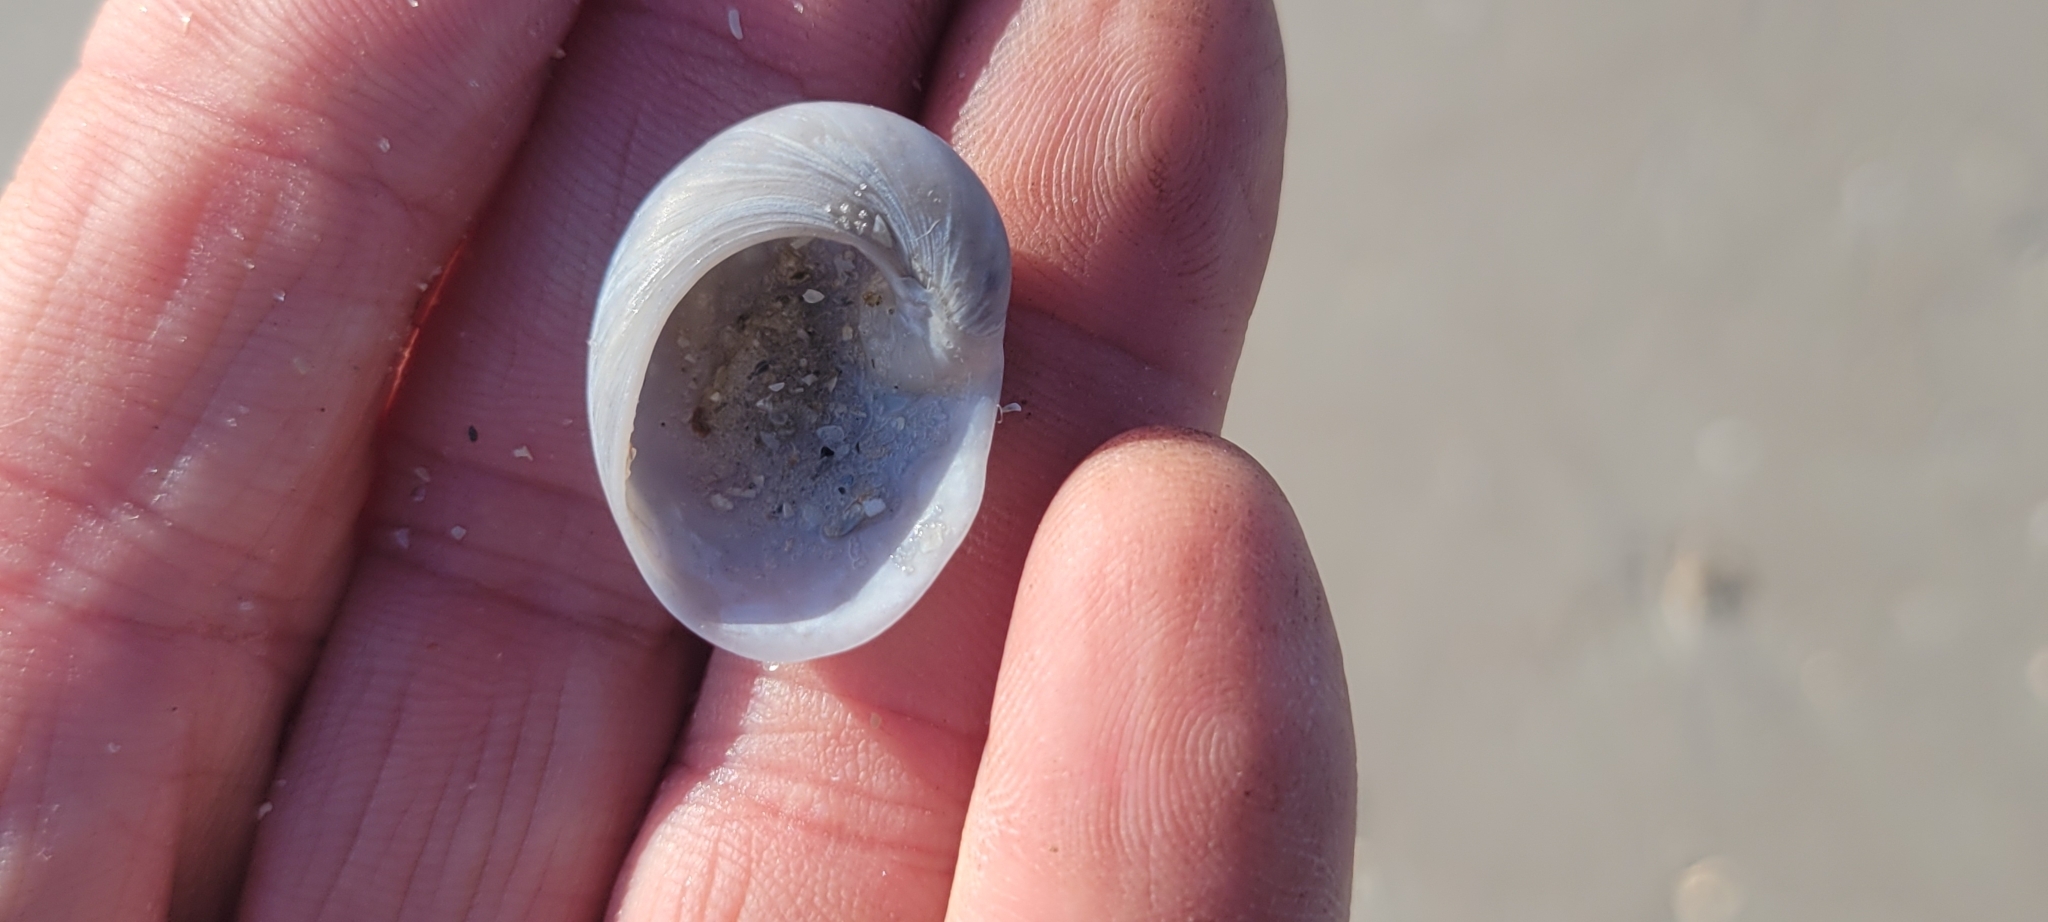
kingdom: Animalia
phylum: Mollusca
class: Gastropoda
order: Littorinimorpha
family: Naticidae
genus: Sinum
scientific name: Sinum perspectivum
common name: White baby ear
